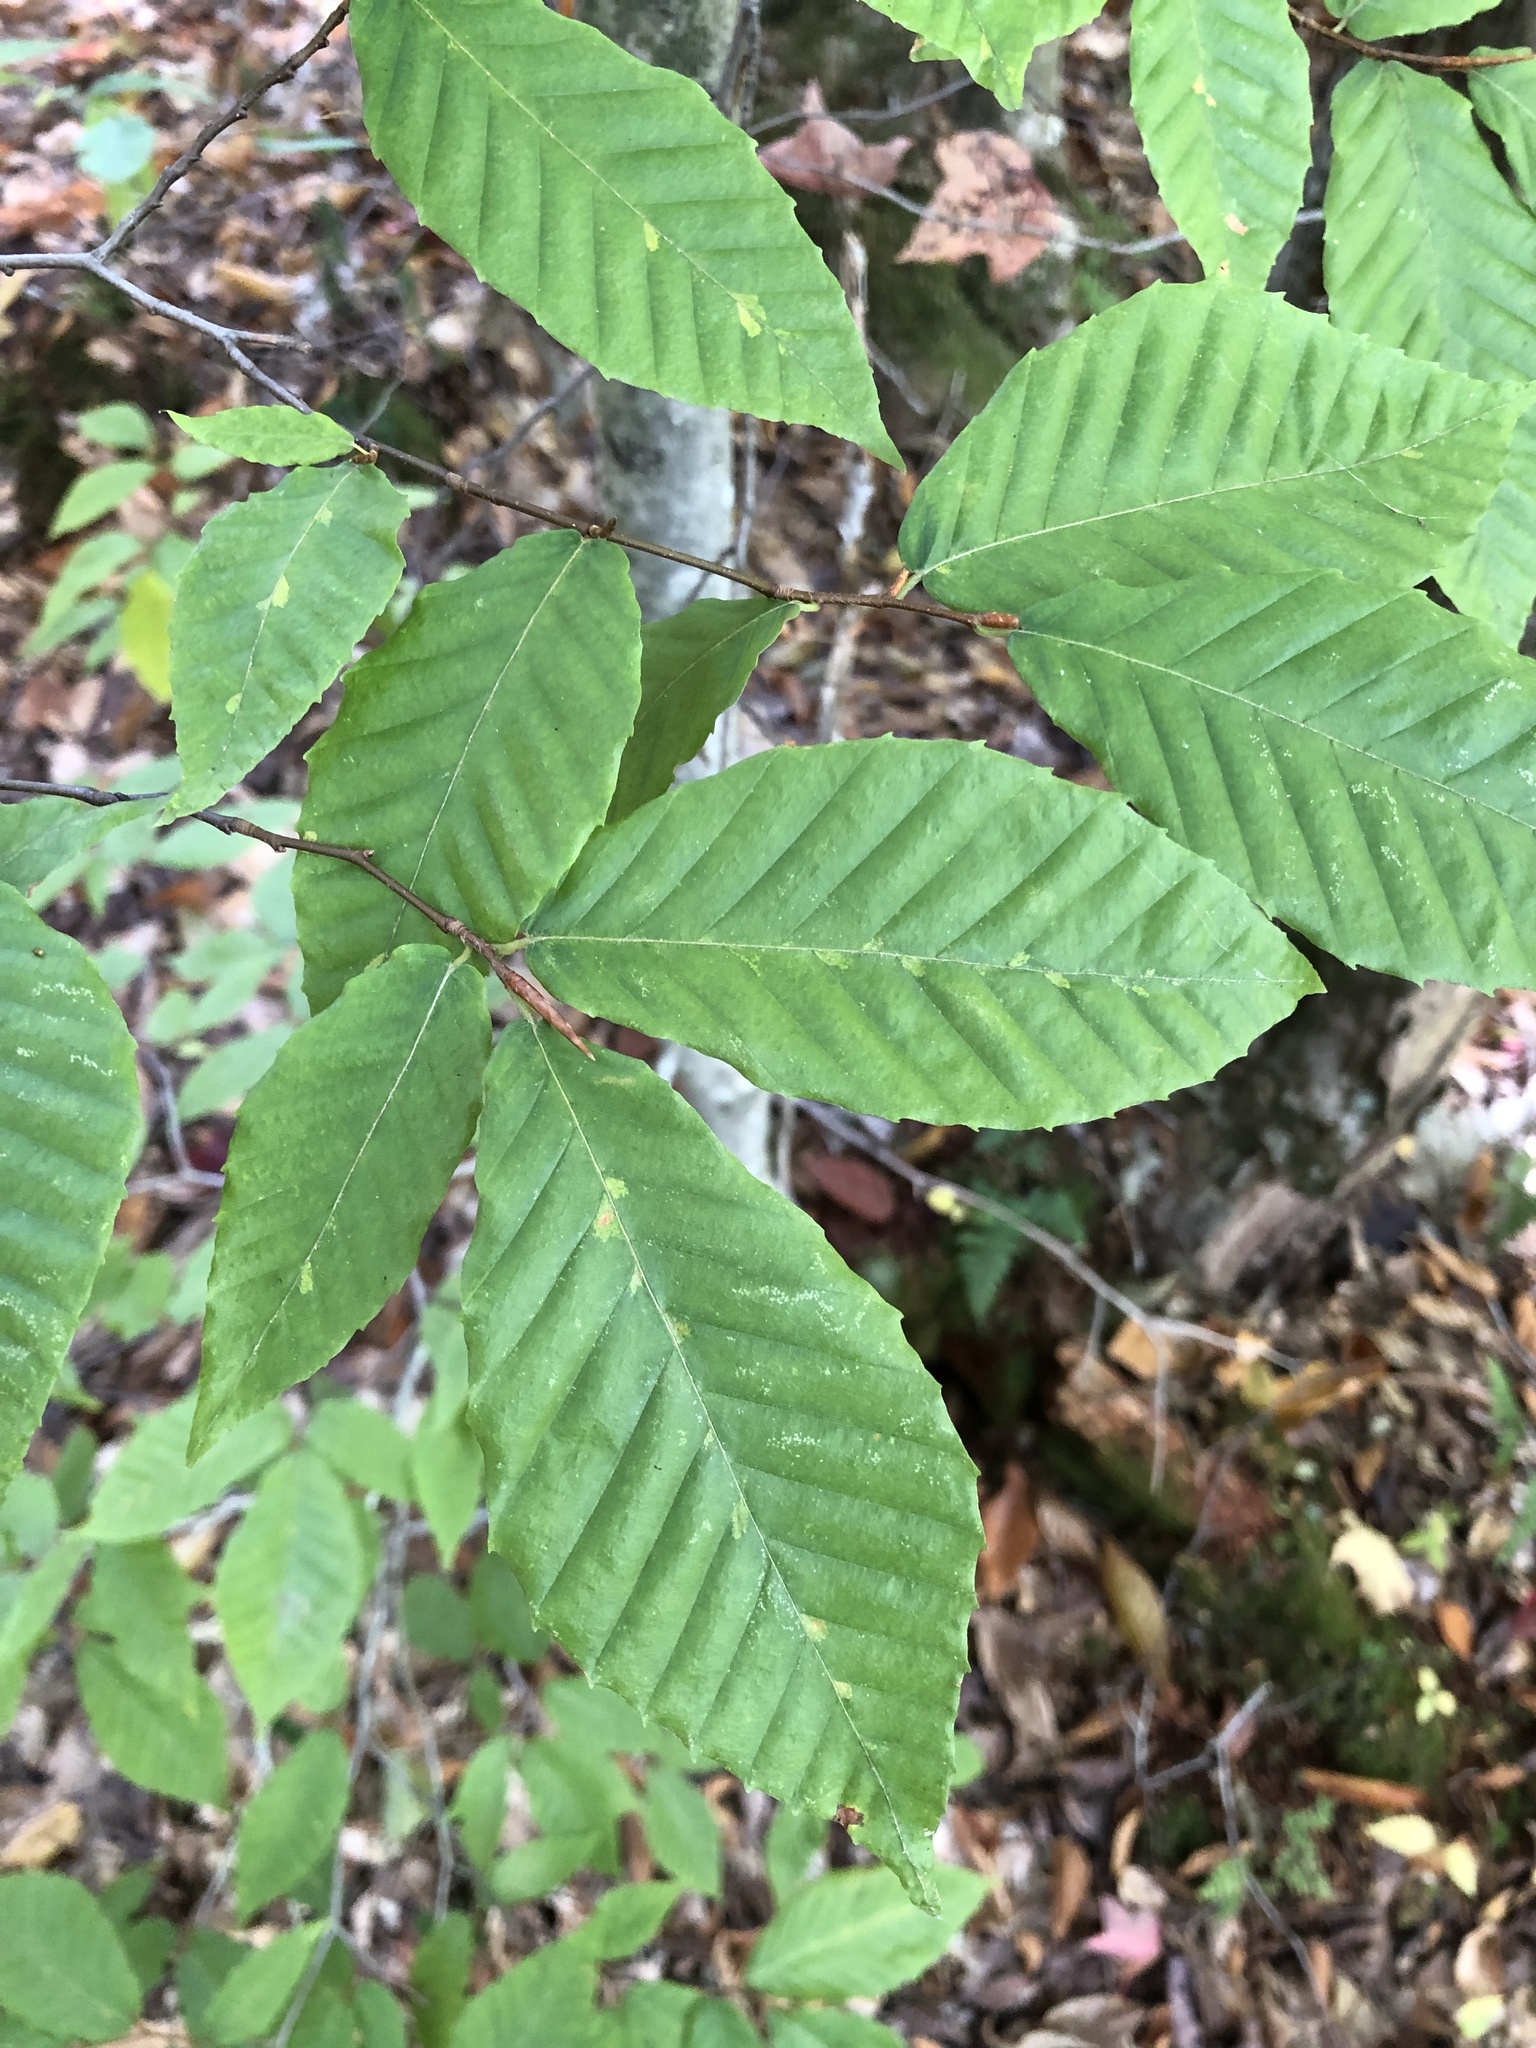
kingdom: Plantae
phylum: Tracheophyta
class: Magnoliopsida
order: Fagales
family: Fagaceae
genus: Fagus
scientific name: Fagus grandifolia
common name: American beech
